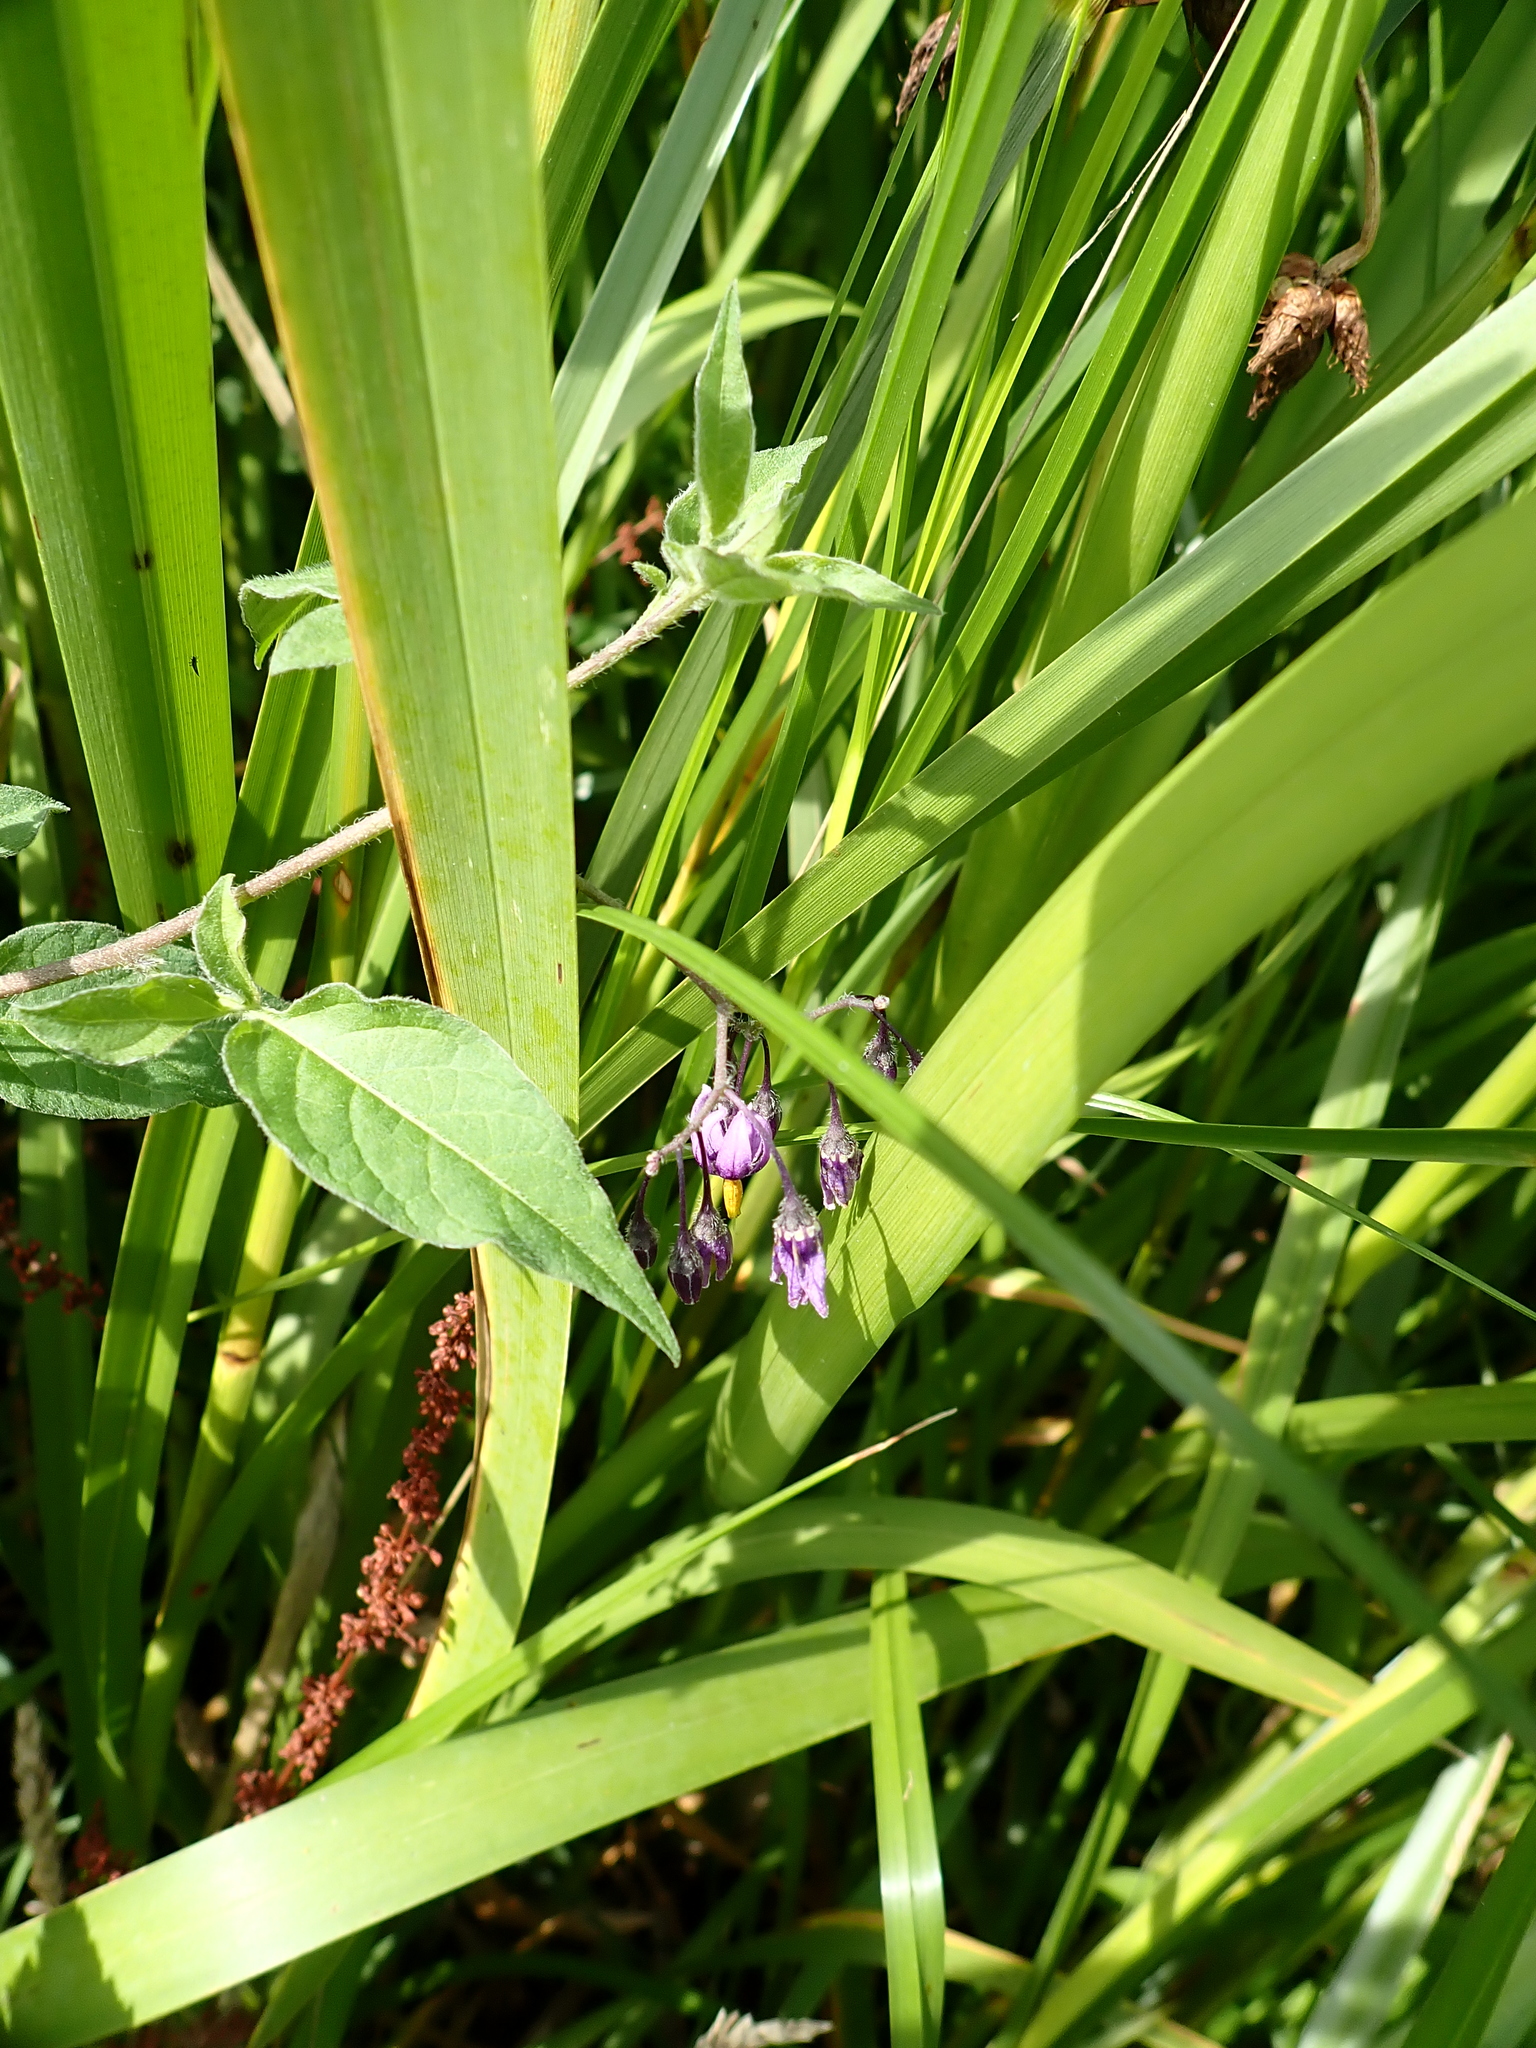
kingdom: Plantae
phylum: Tracheophyta
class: Magnoliopsida
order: Solanales
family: Solanaceae
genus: Solanum
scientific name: Solanum dulcamara
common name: Climbing nightshade
